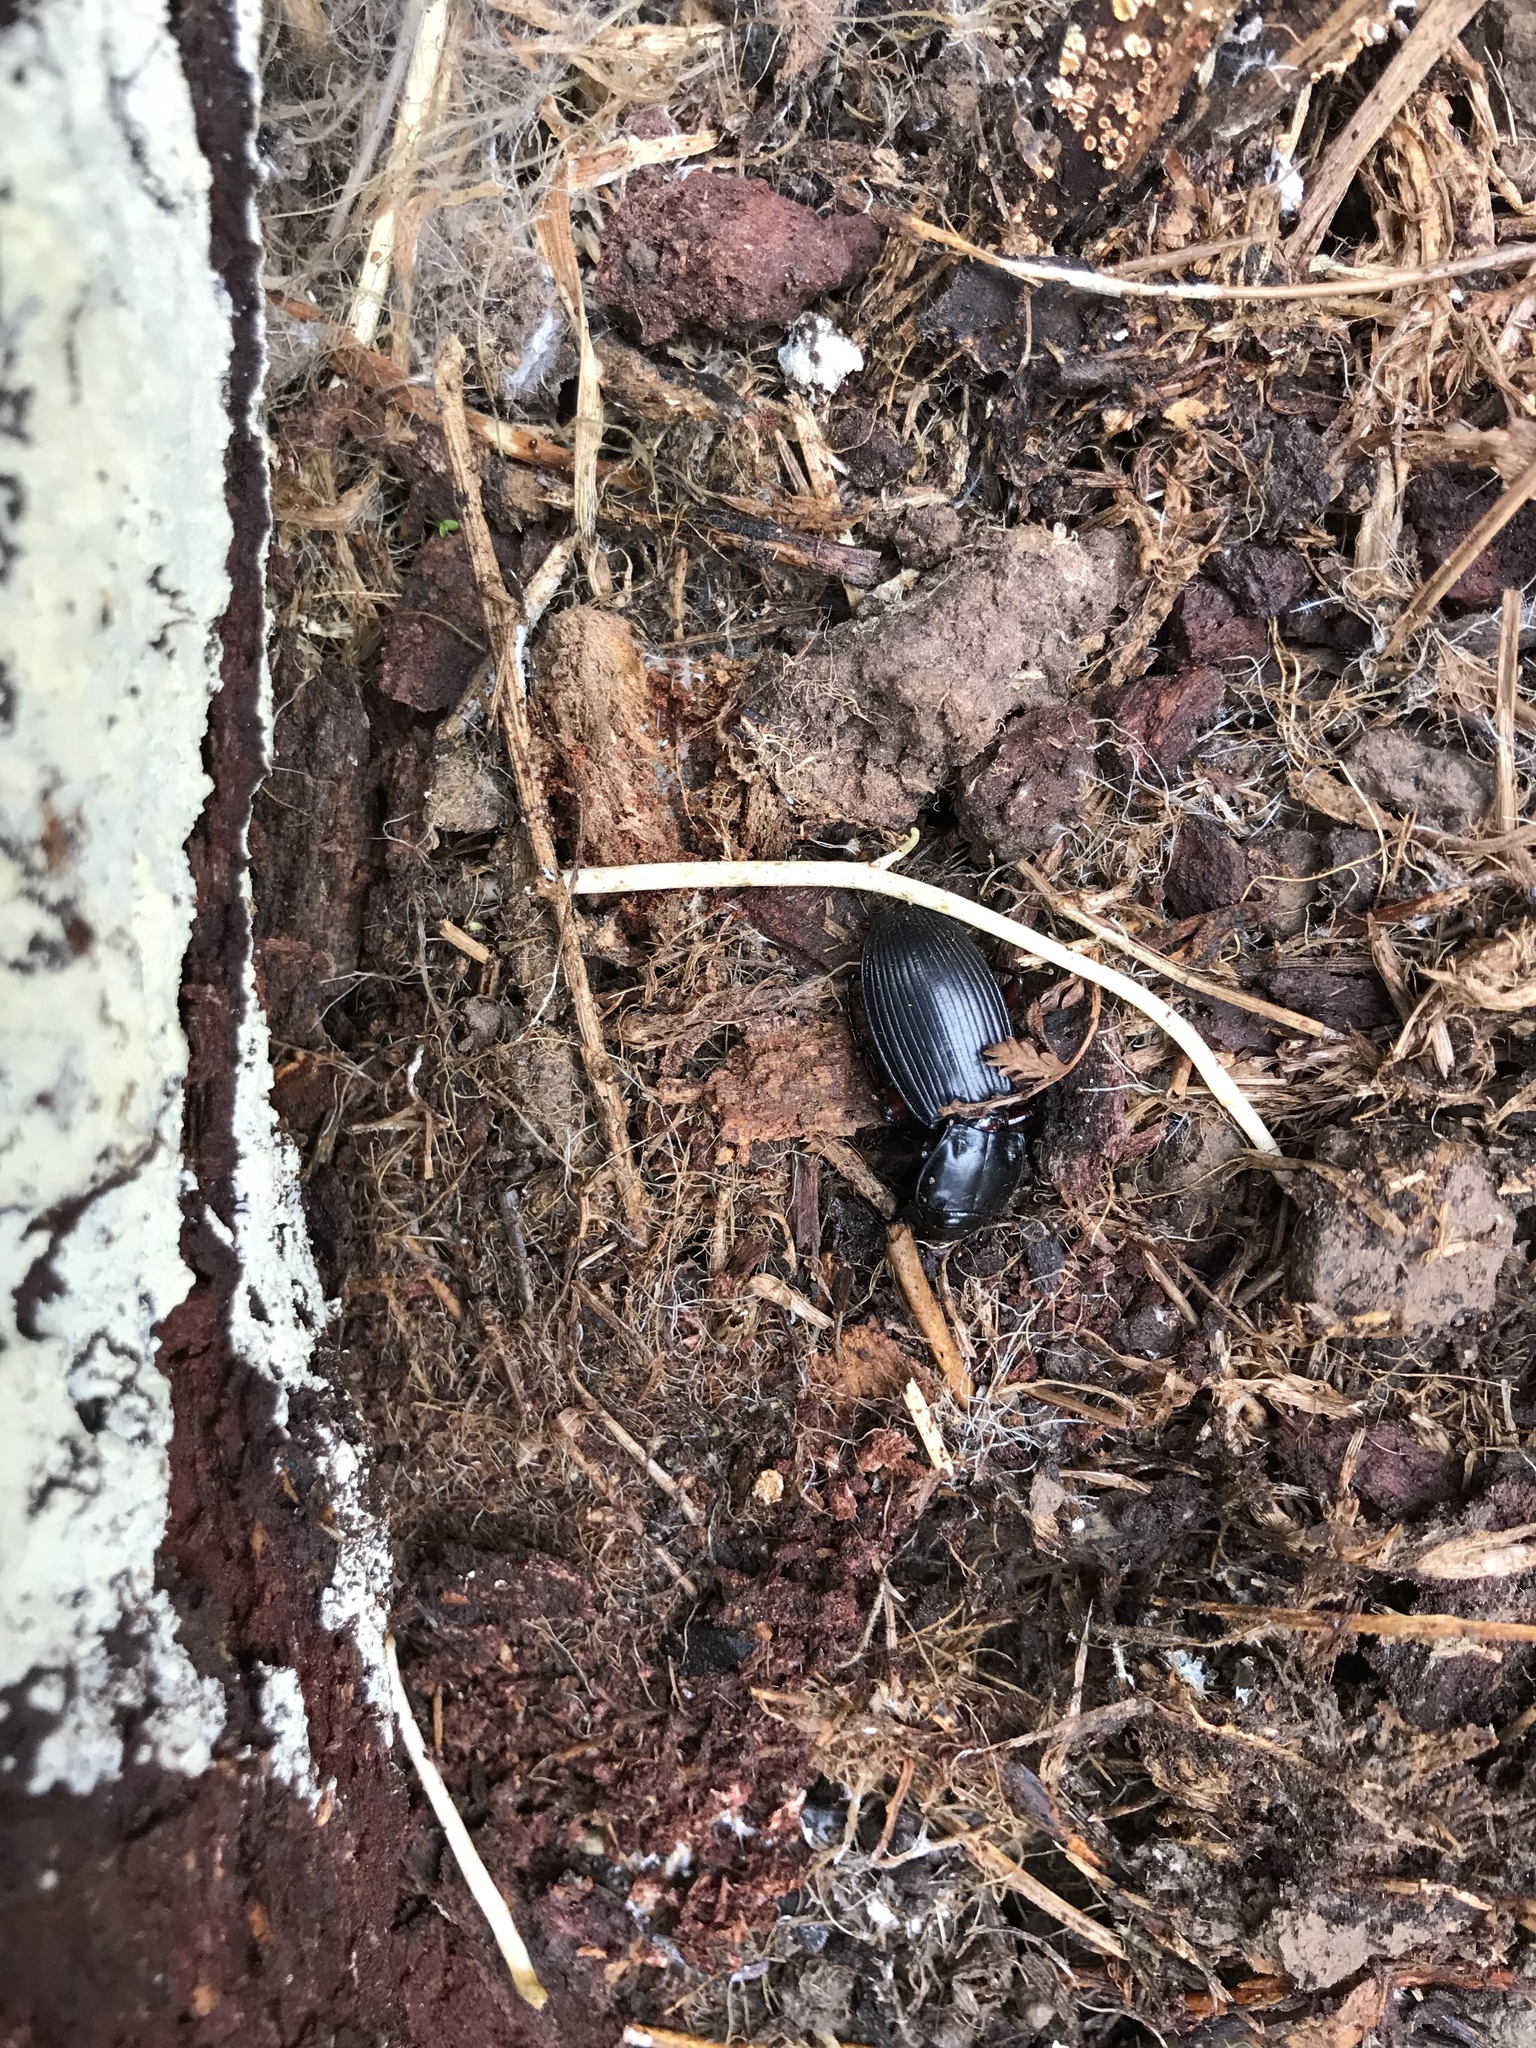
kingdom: Animalia
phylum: Arthropoda
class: Insecta
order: Coleoptera
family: Carabidae
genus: Plocamostethus
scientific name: Plocamostethus planiusculus
